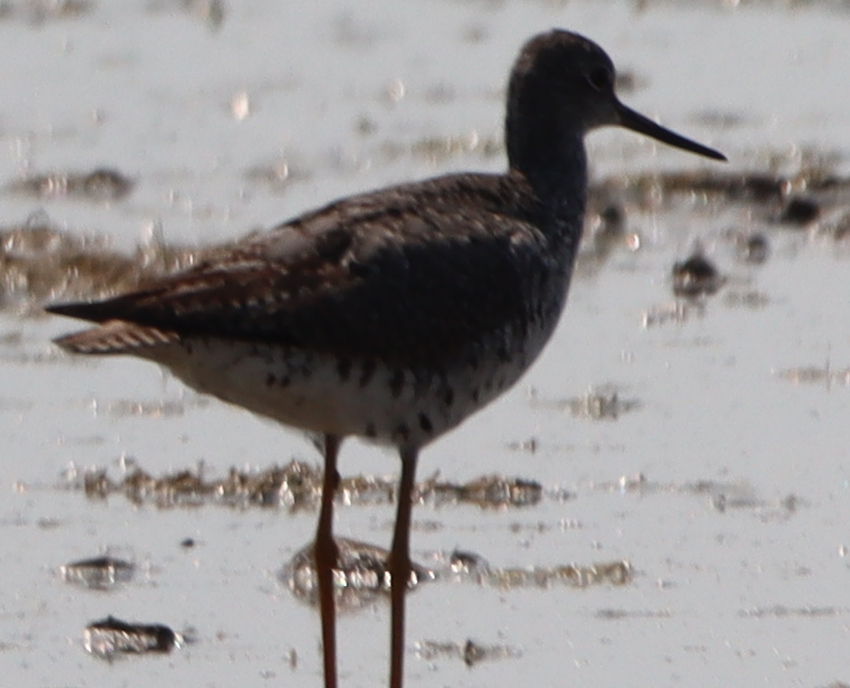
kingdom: Animalia
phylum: Chordata
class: Aves
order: Charadriiformes
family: Scolopacidae
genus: Tringa
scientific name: Tringa melanoleuca
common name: Greater yellowlegs
